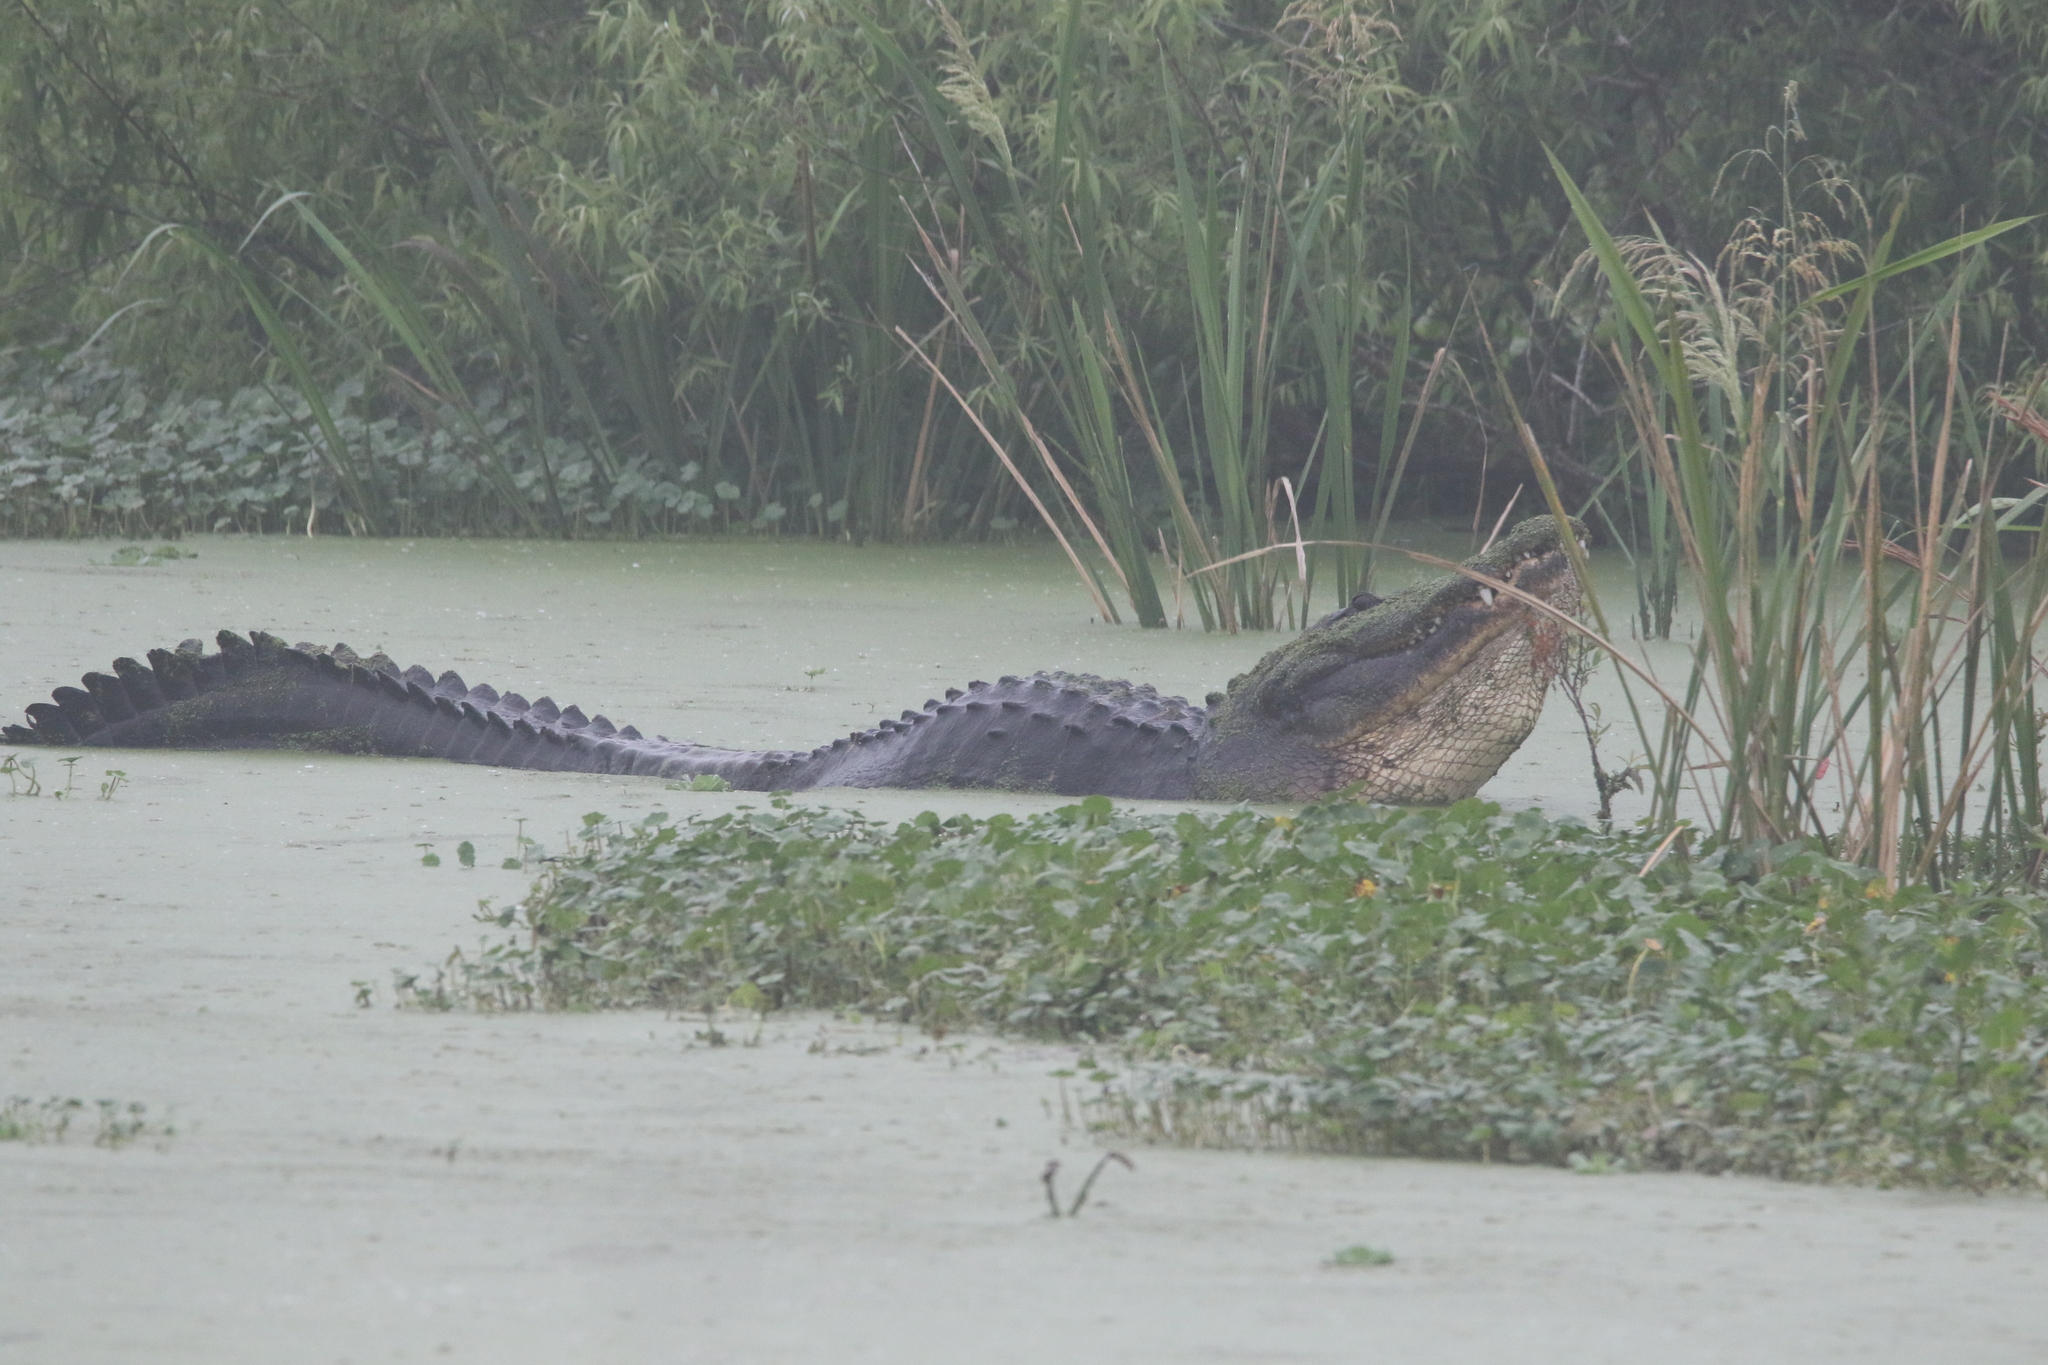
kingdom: Animalia
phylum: Chordata
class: Crocodylia
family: Alligatoridae
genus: Alligator
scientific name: Alligator mississippiensis
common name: American alligator
